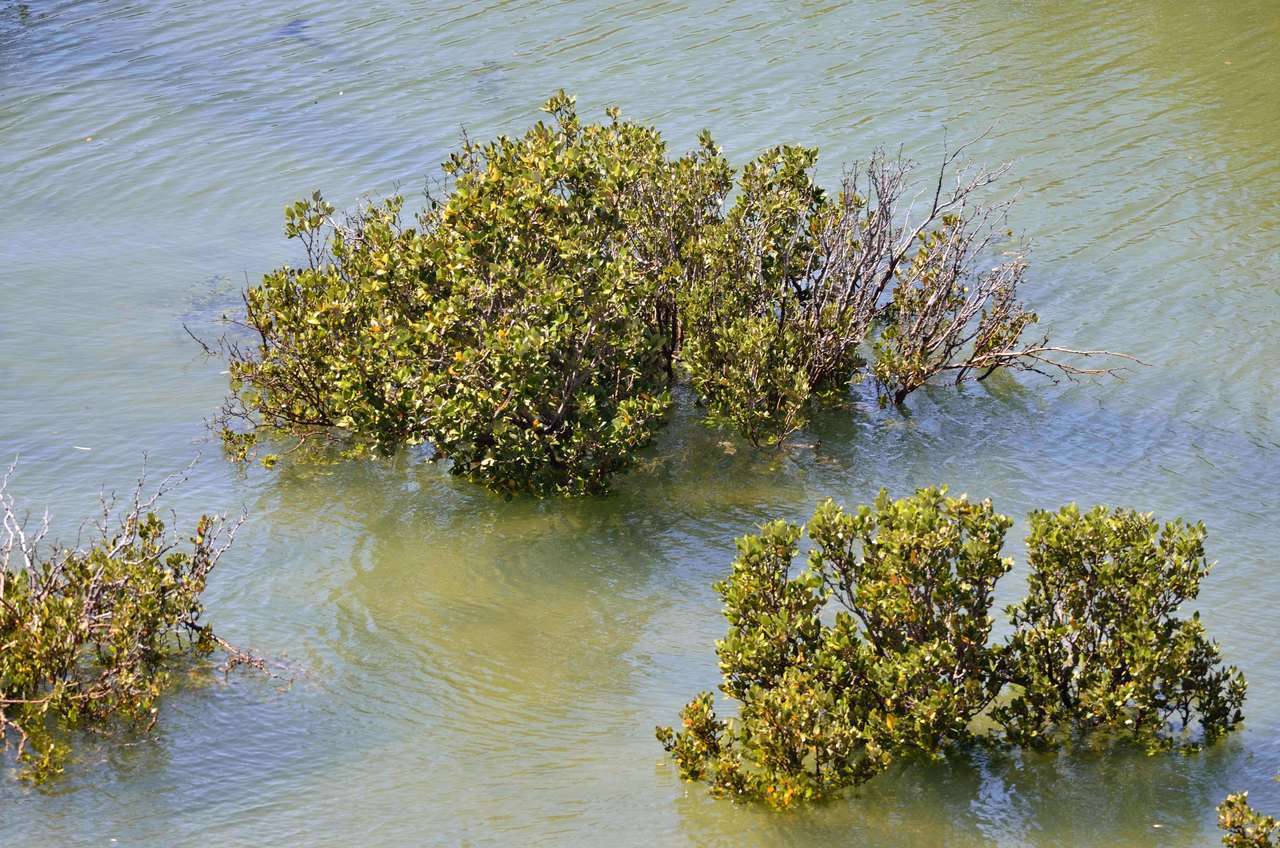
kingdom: Plantae
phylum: Tracheophyta
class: Magnoliopsida
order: Lamiales
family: Acanthaceae
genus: Avicennia
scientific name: Avicennia marina
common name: Gray mangrove
